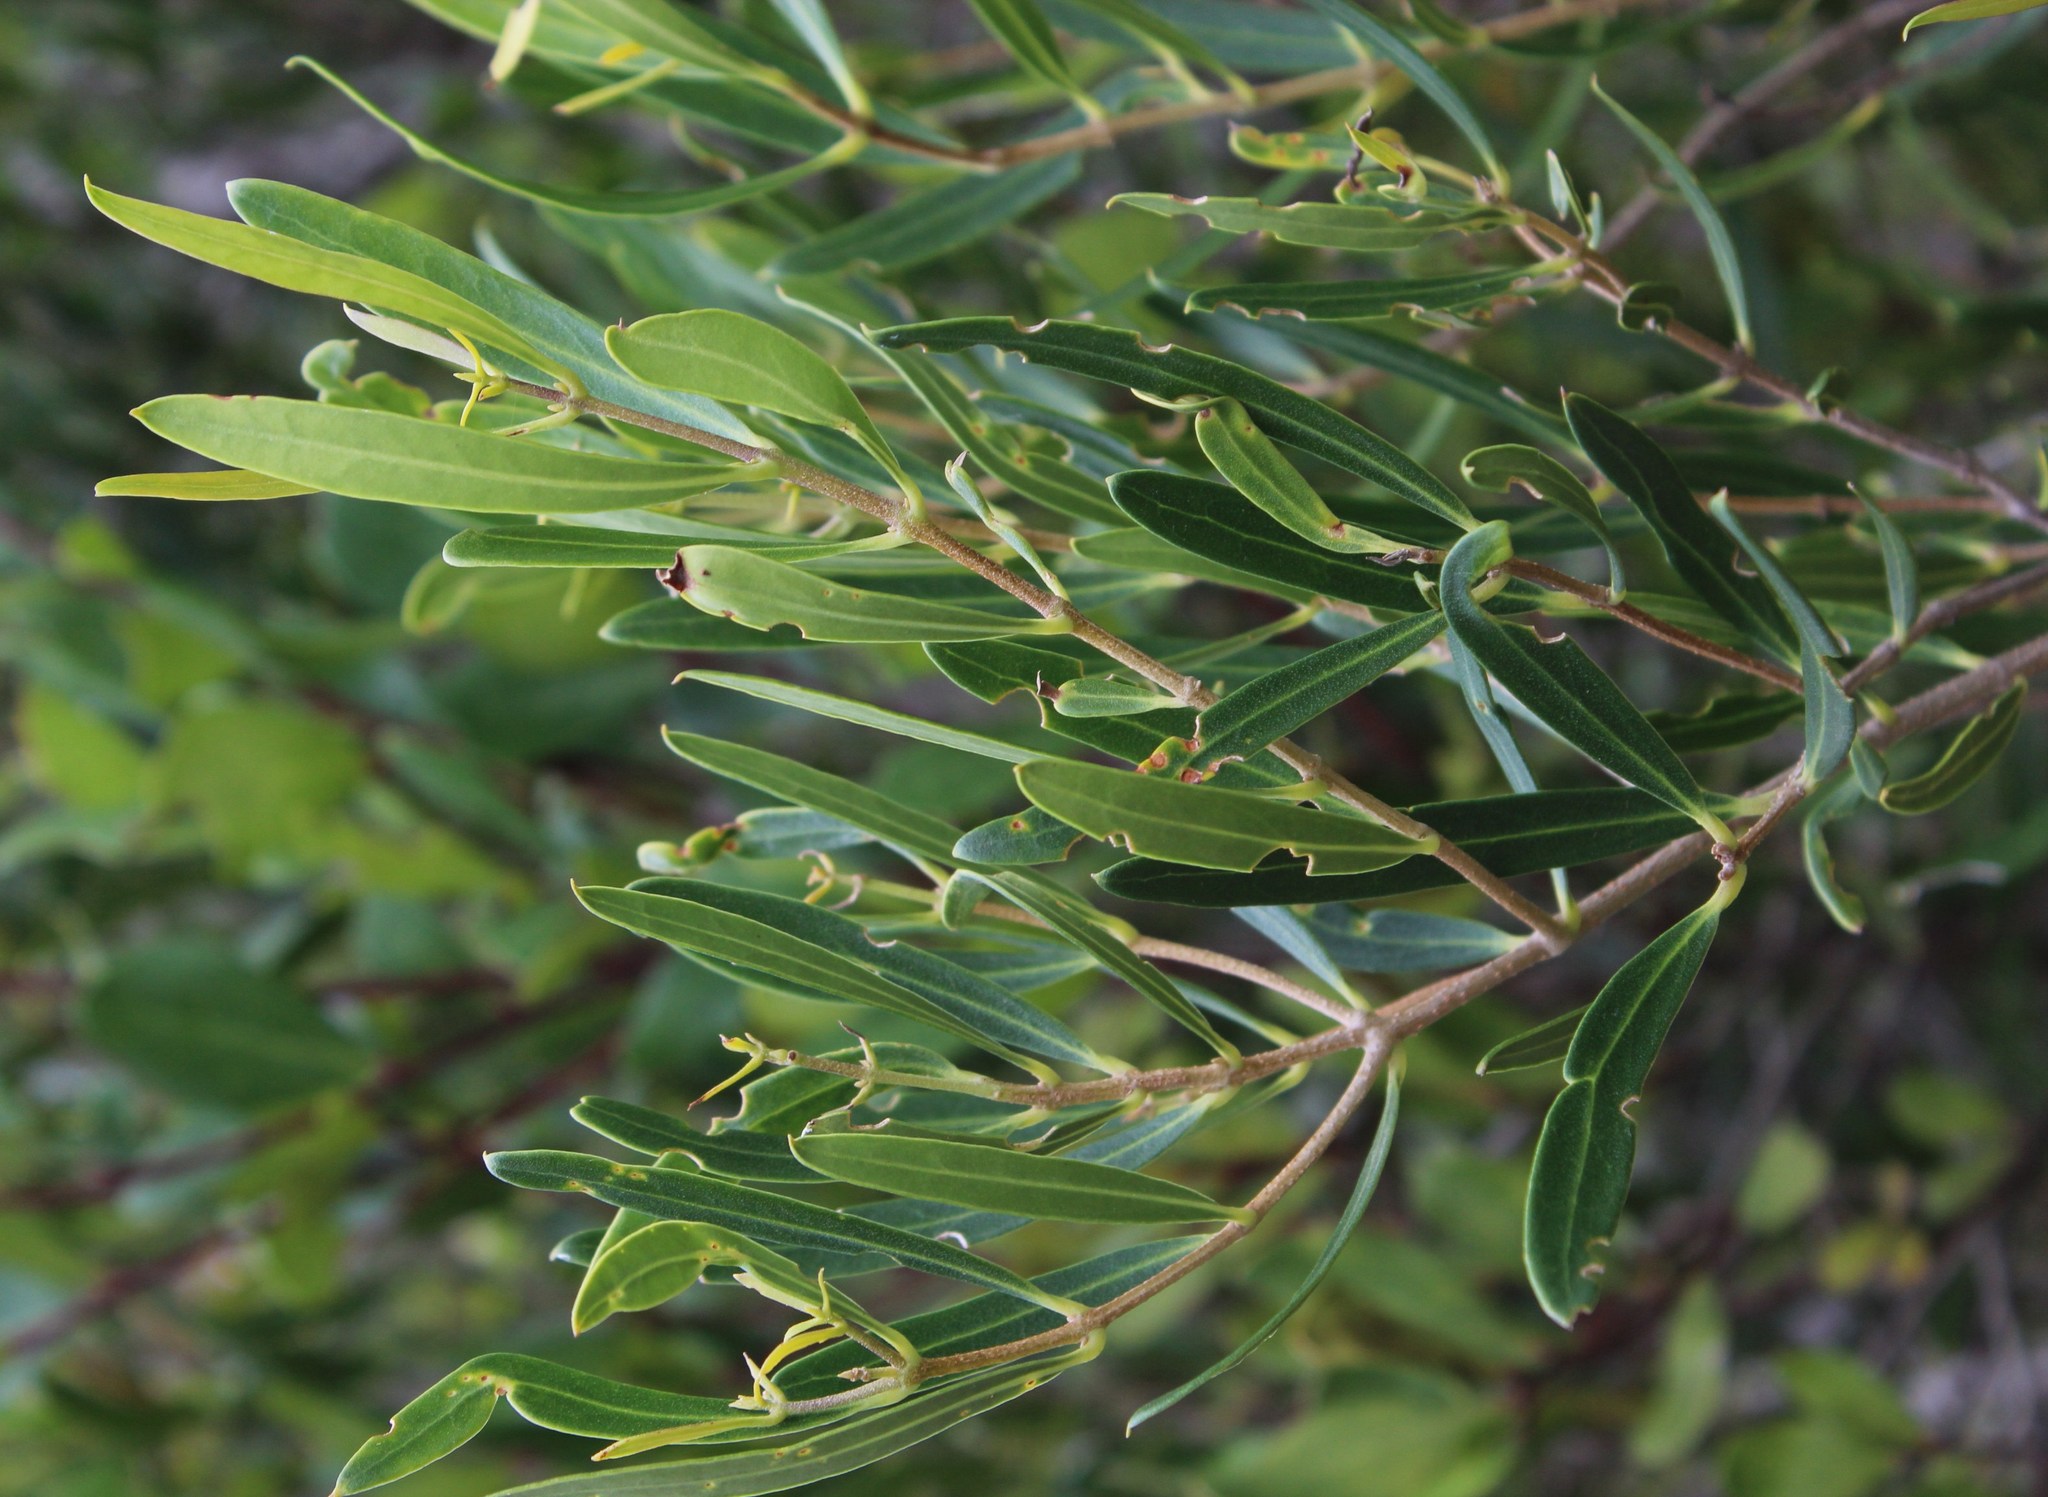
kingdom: Plantae
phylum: Tracheophyta
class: Magnoliopsida
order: Lamiales
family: Oleaceae
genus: Olea
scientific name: Olea exasperata
